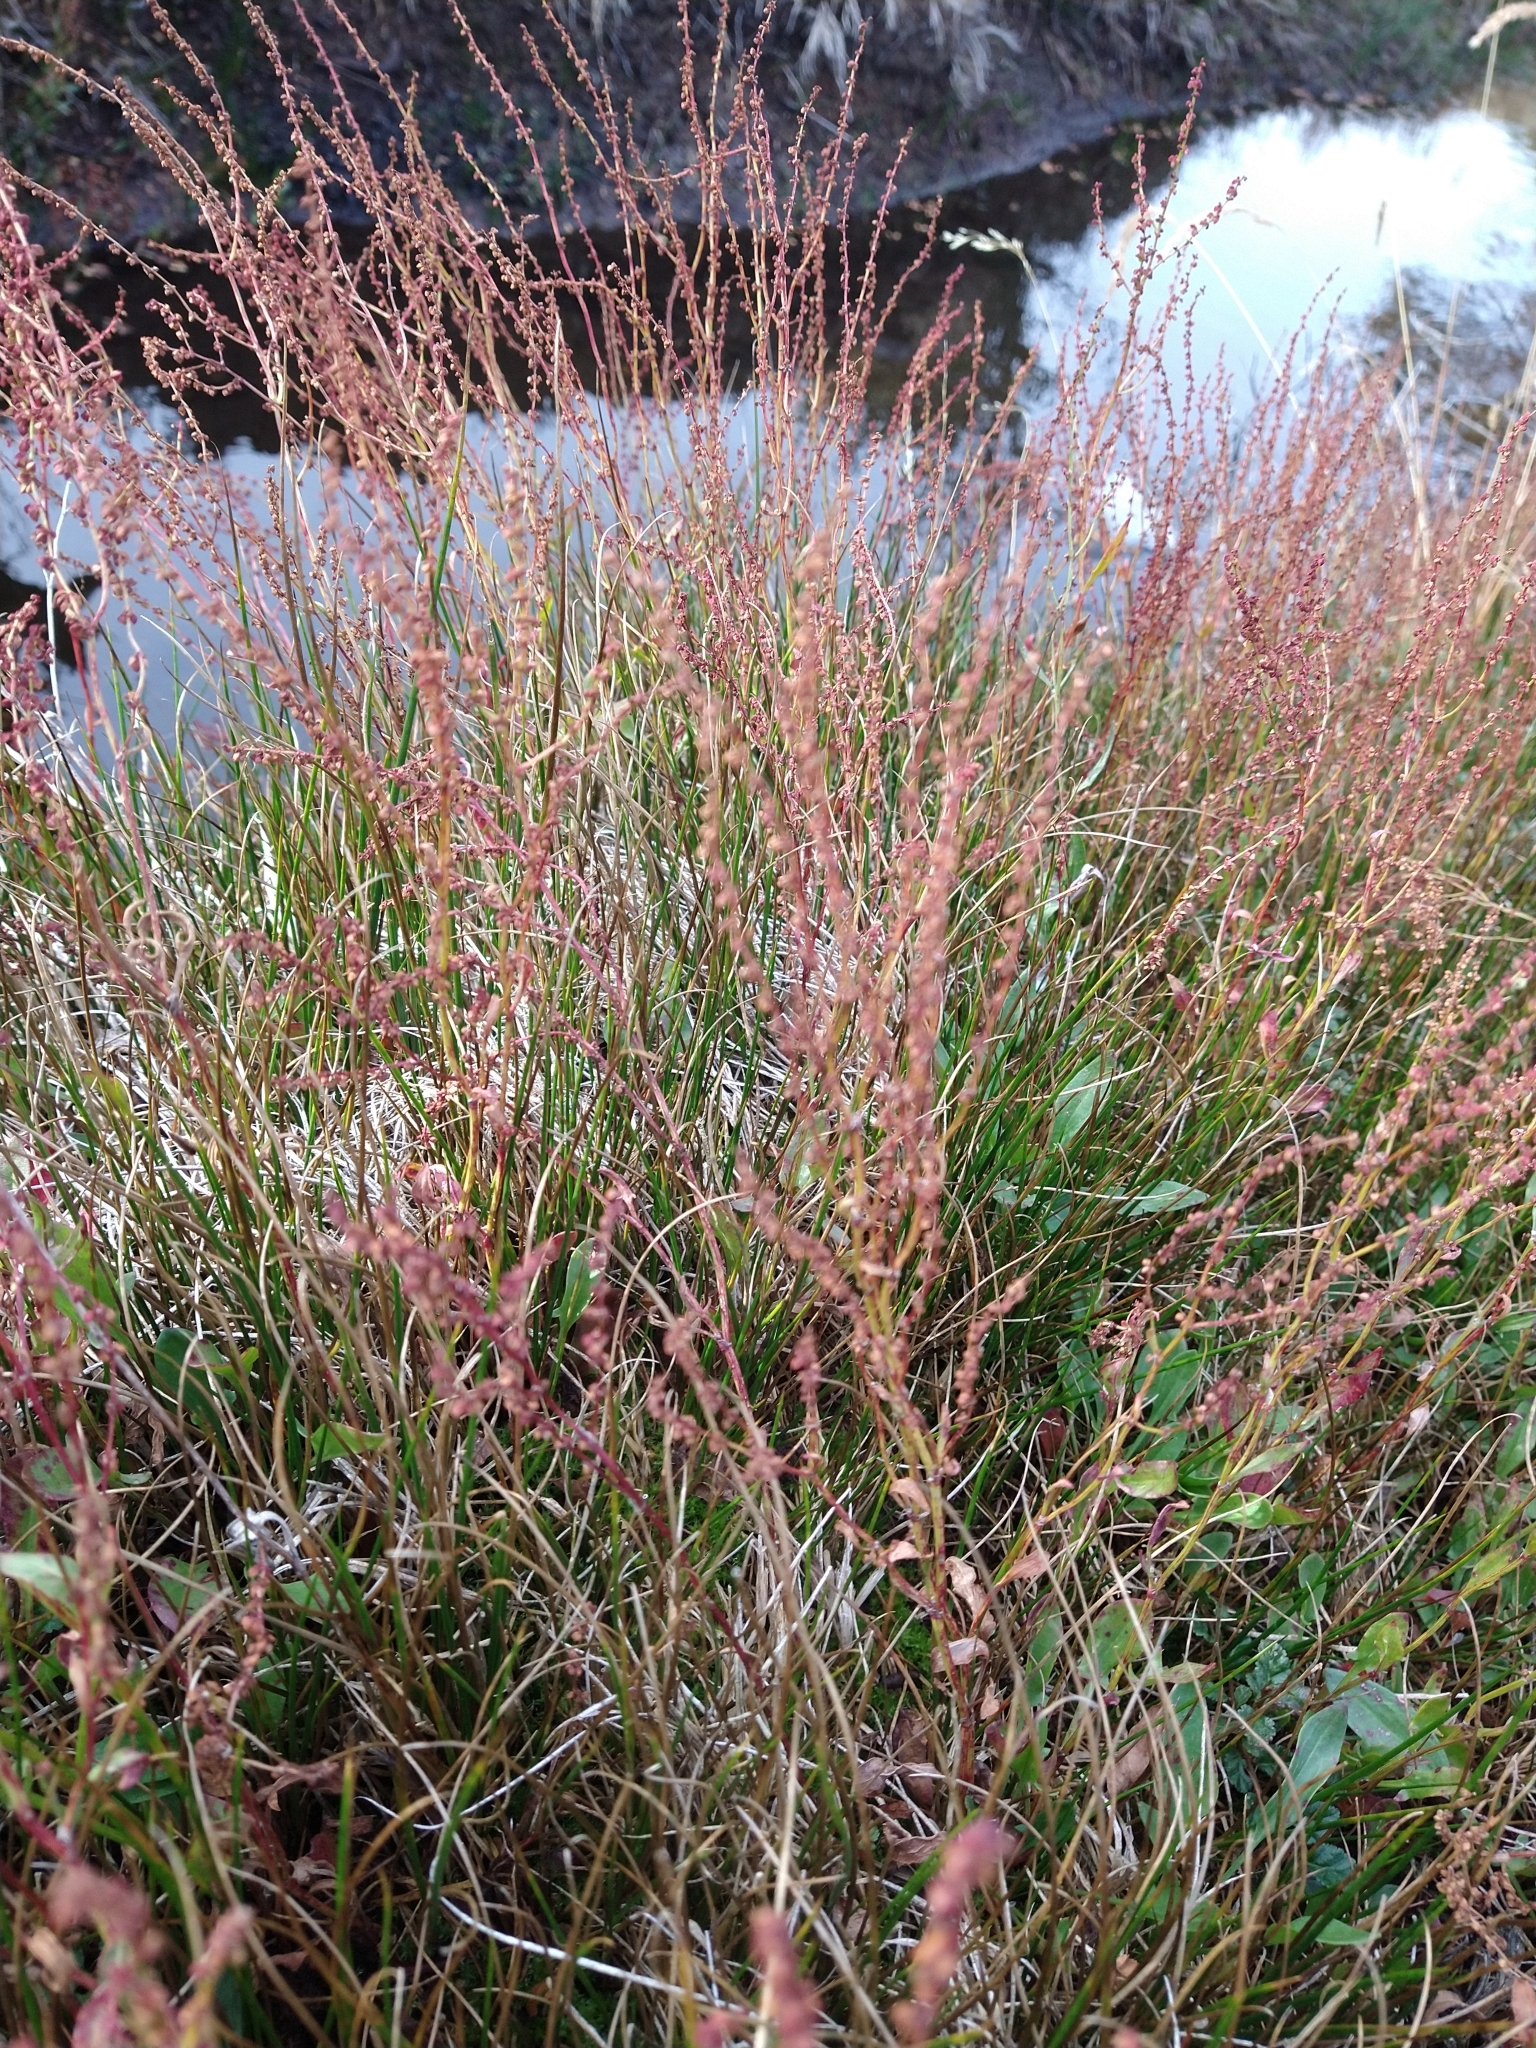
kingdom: Plantae
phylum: Tracheophyta
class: Magnoliopsida
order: Caryophyllales
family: Polygonaceae
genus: Rumex
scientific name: Rumex acetosella
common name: Common sheep sorrel
